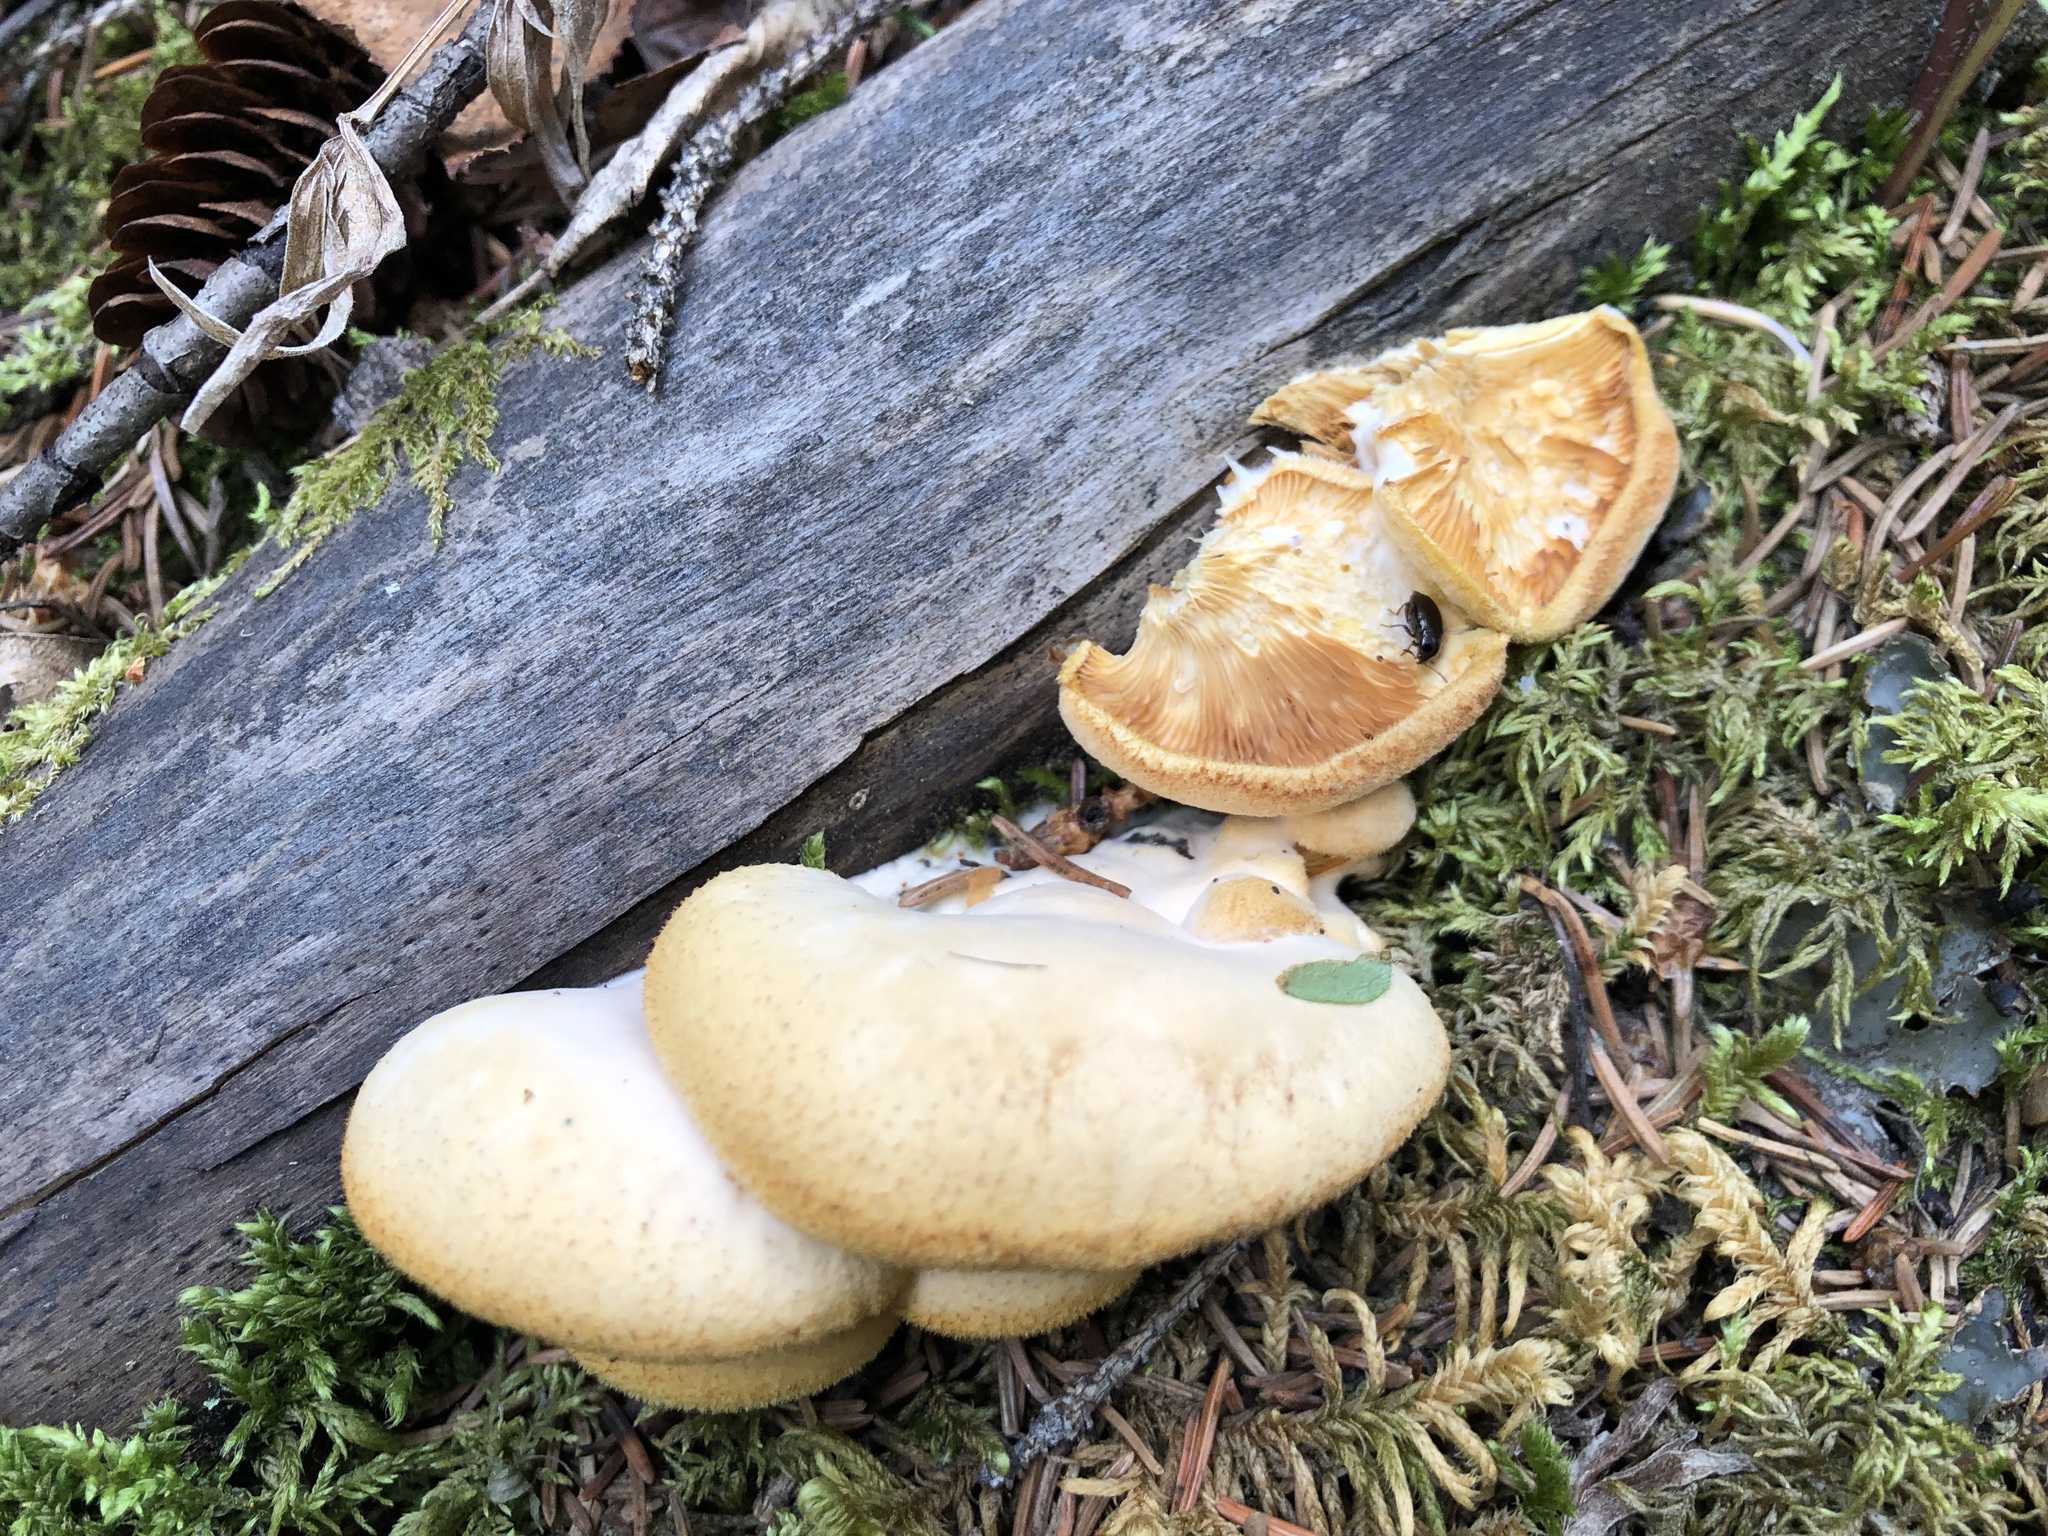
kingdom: Fungi
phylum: Basidiomycota
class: Agaricomycetes
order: Agaricales
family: Phyllotopsidaceae
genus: Phyllotopsis
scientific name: Phyllotopsis nidulans
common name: Orange mock oyster
